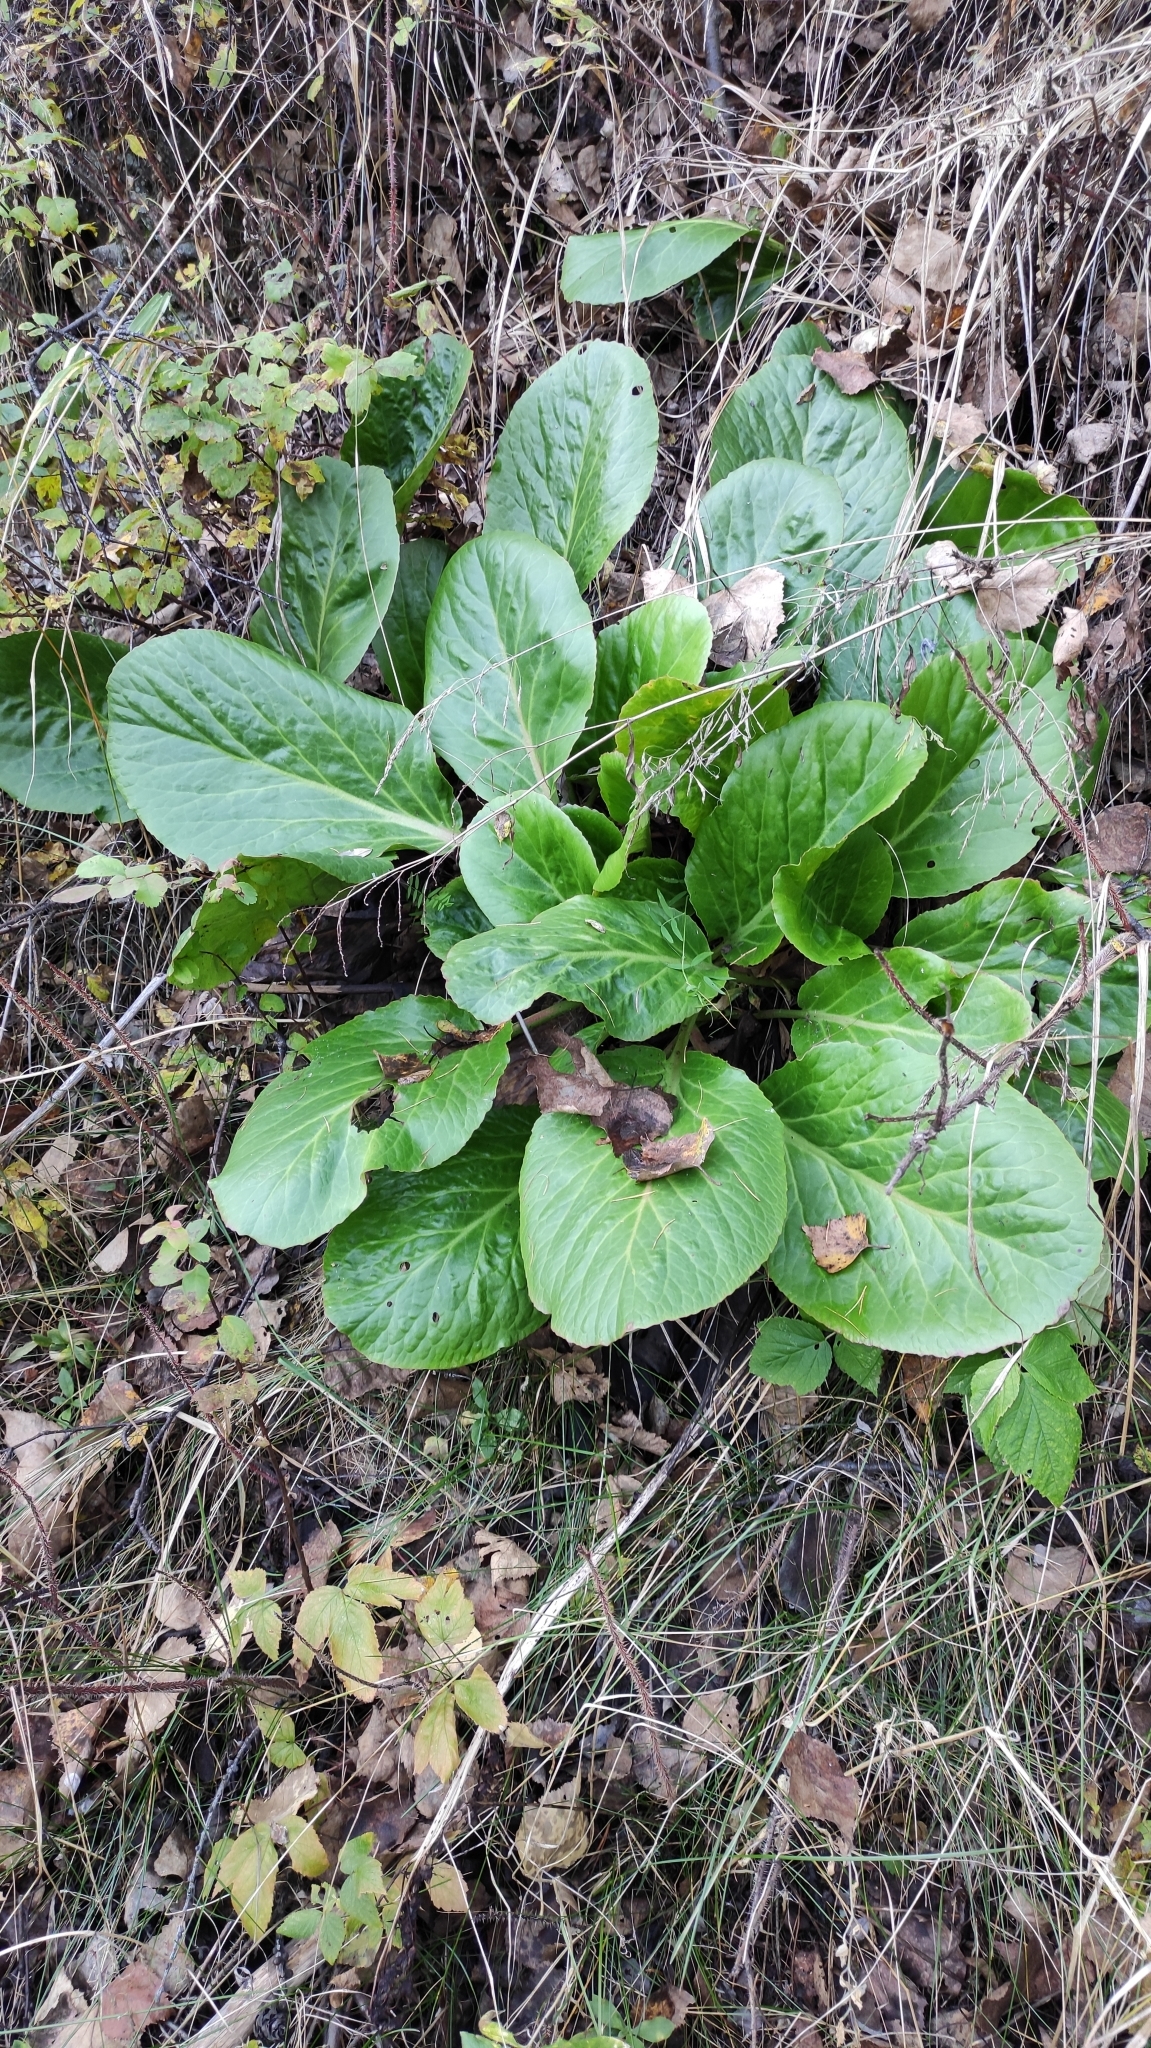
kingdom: Plantae
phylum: Tracheophyta
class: Magnoliopsida
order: Saxifragales
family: Saxifragaceae
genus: Bergenia
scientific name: Bergenia crassifolia
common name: Elephant-ears
